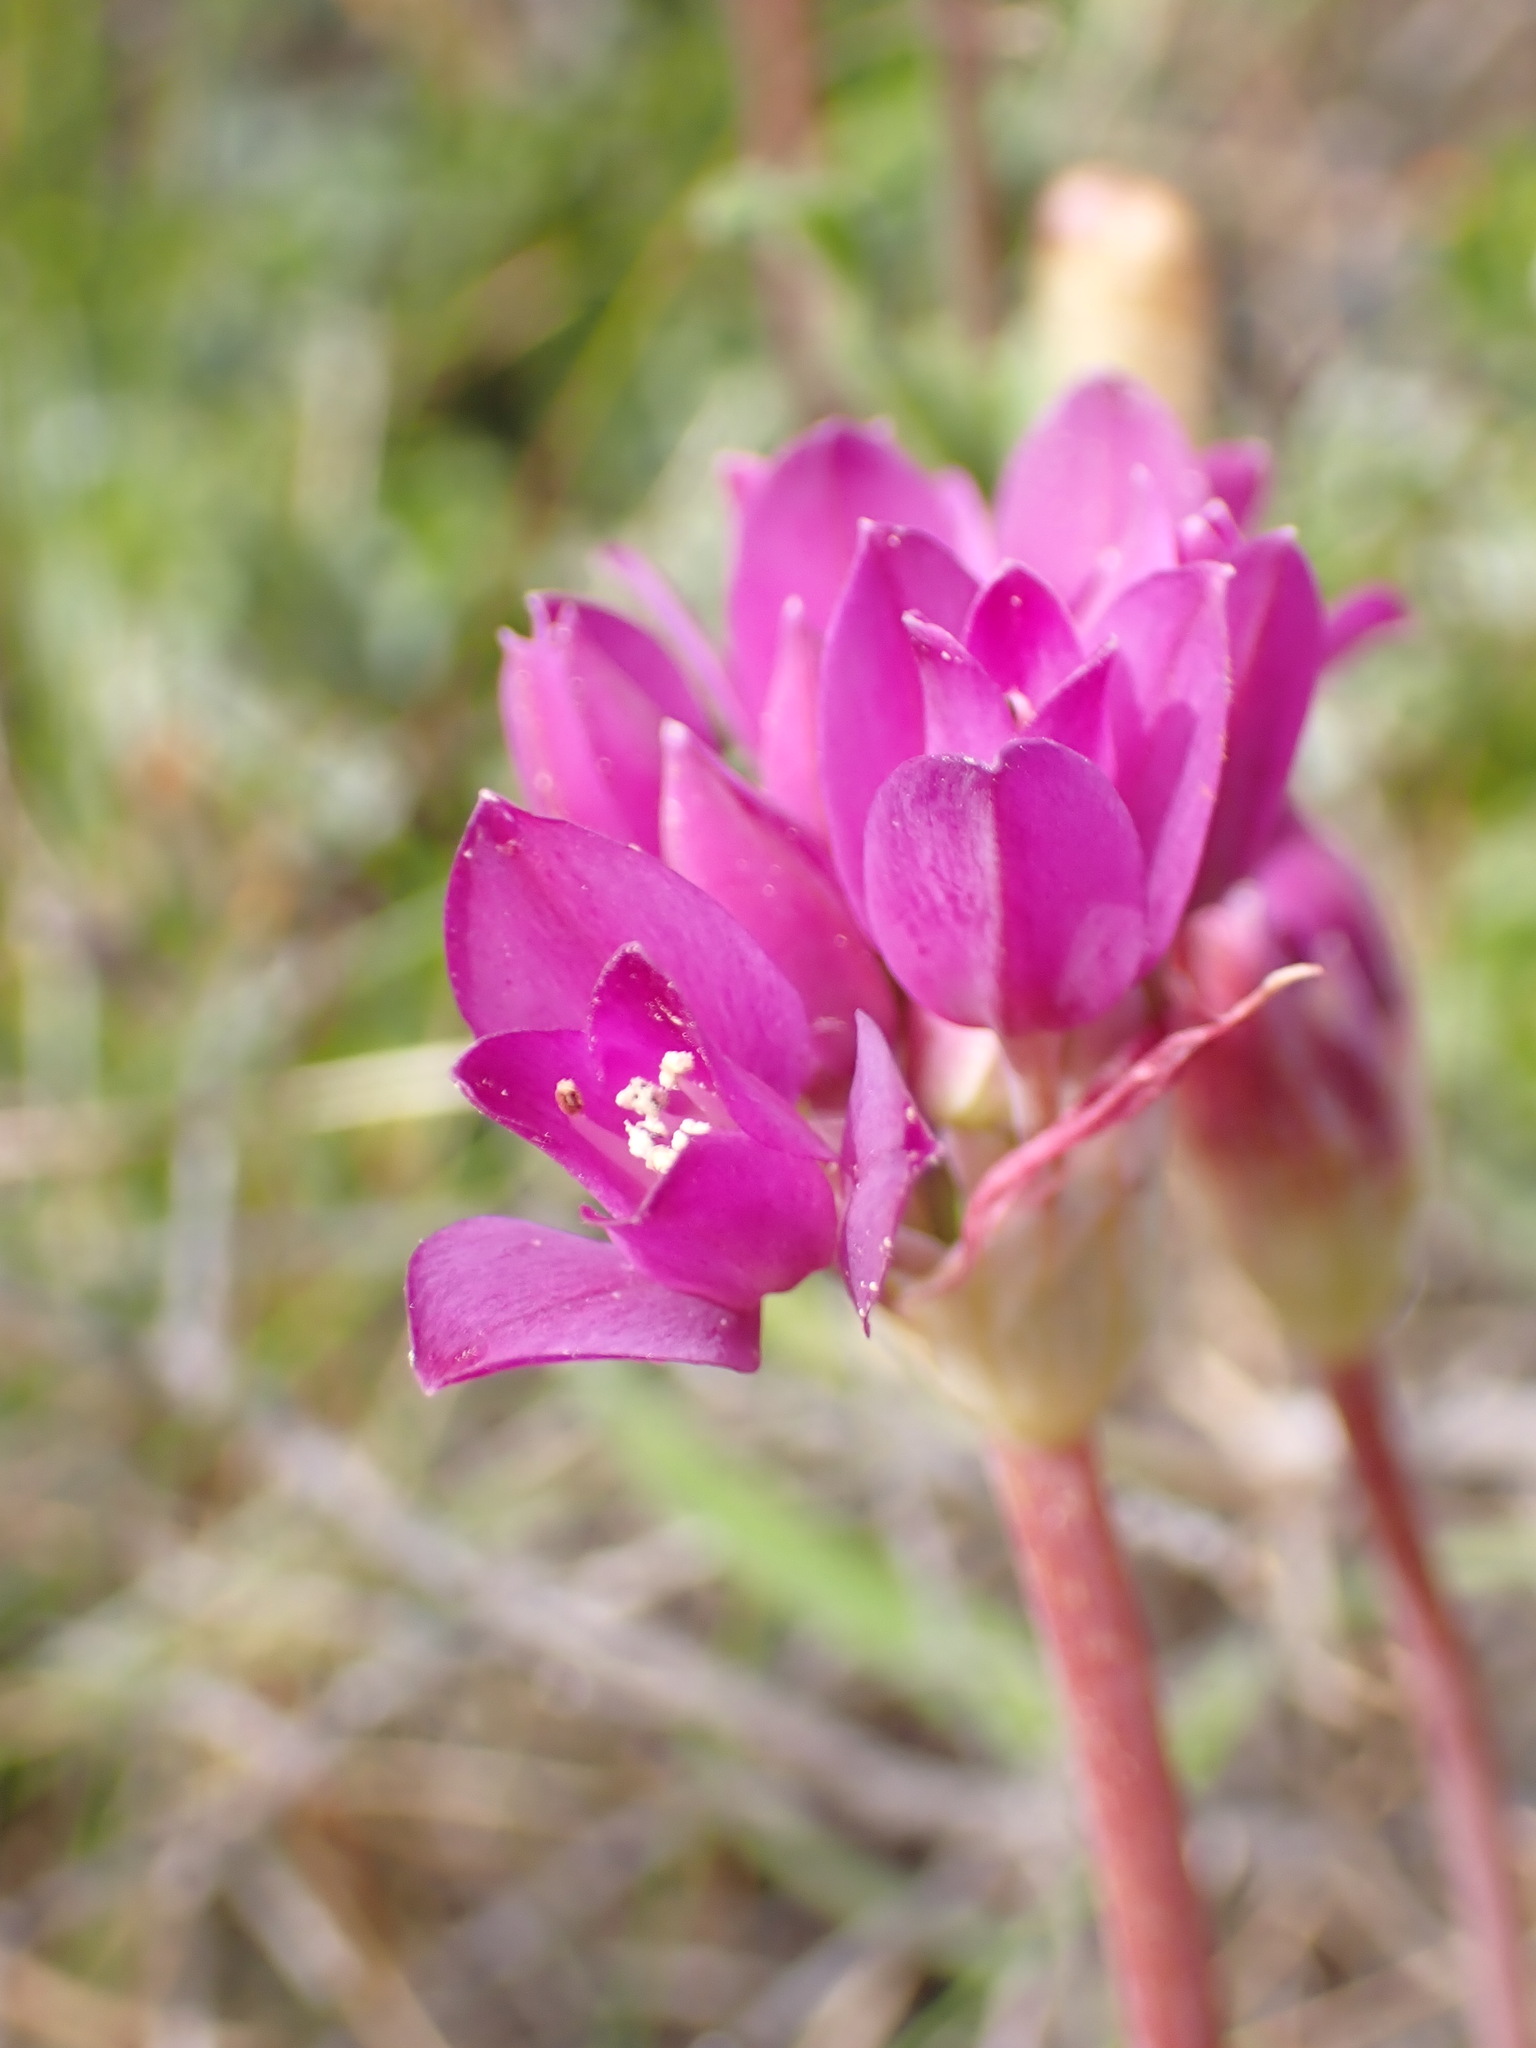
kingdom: Plantae
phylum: Tracheophyta
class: Liliopsida
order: Asparagales
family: Amaryllidaceae
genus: Allium
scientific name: Allium dichlamydeum
